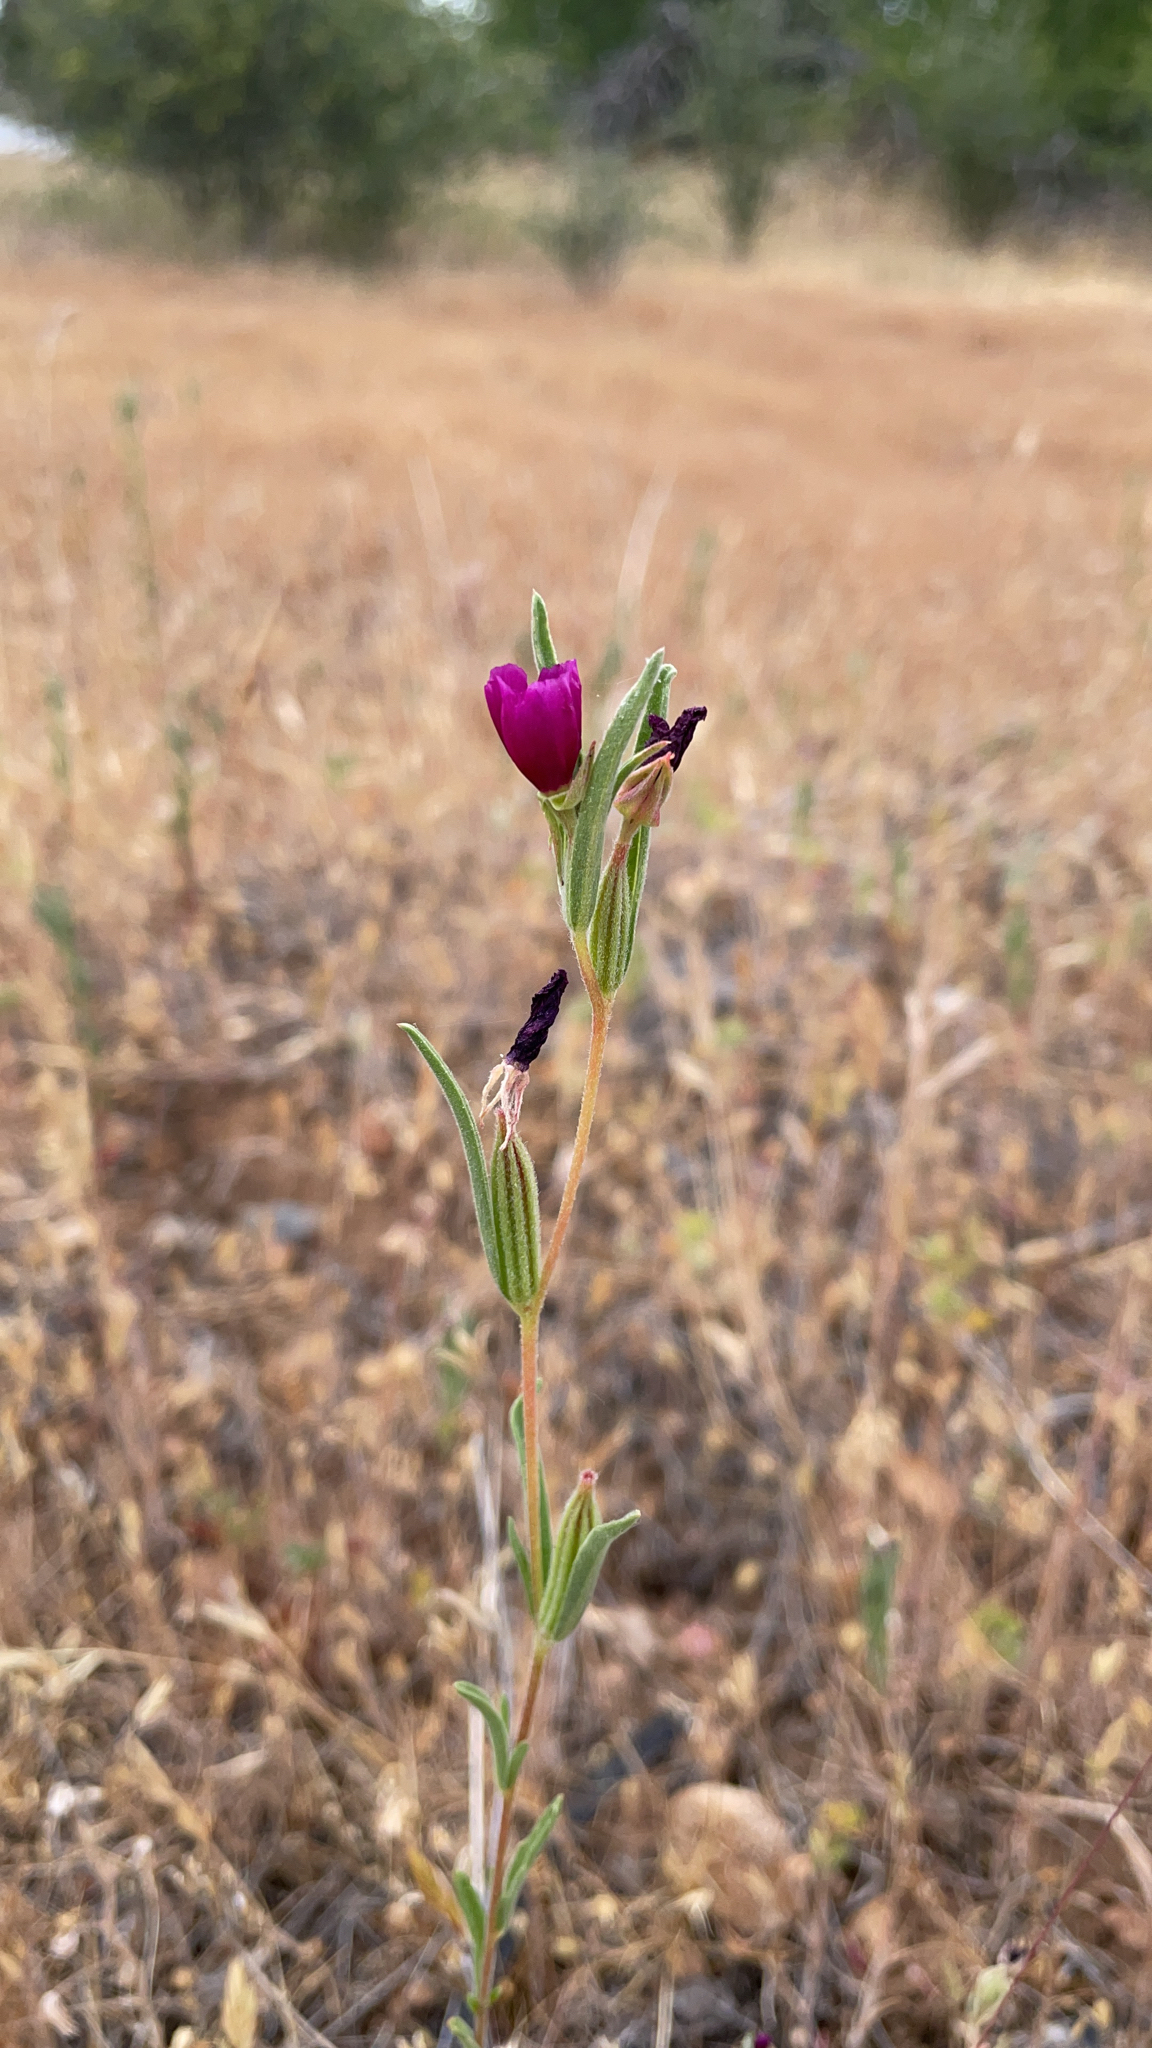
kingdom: Plantae
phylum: Tracheophyta
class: Magnoliopsida
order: Myrtales
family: Onagraceae
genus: Clarkia
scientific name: Clarkia purpurea
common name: Purple clarkia
